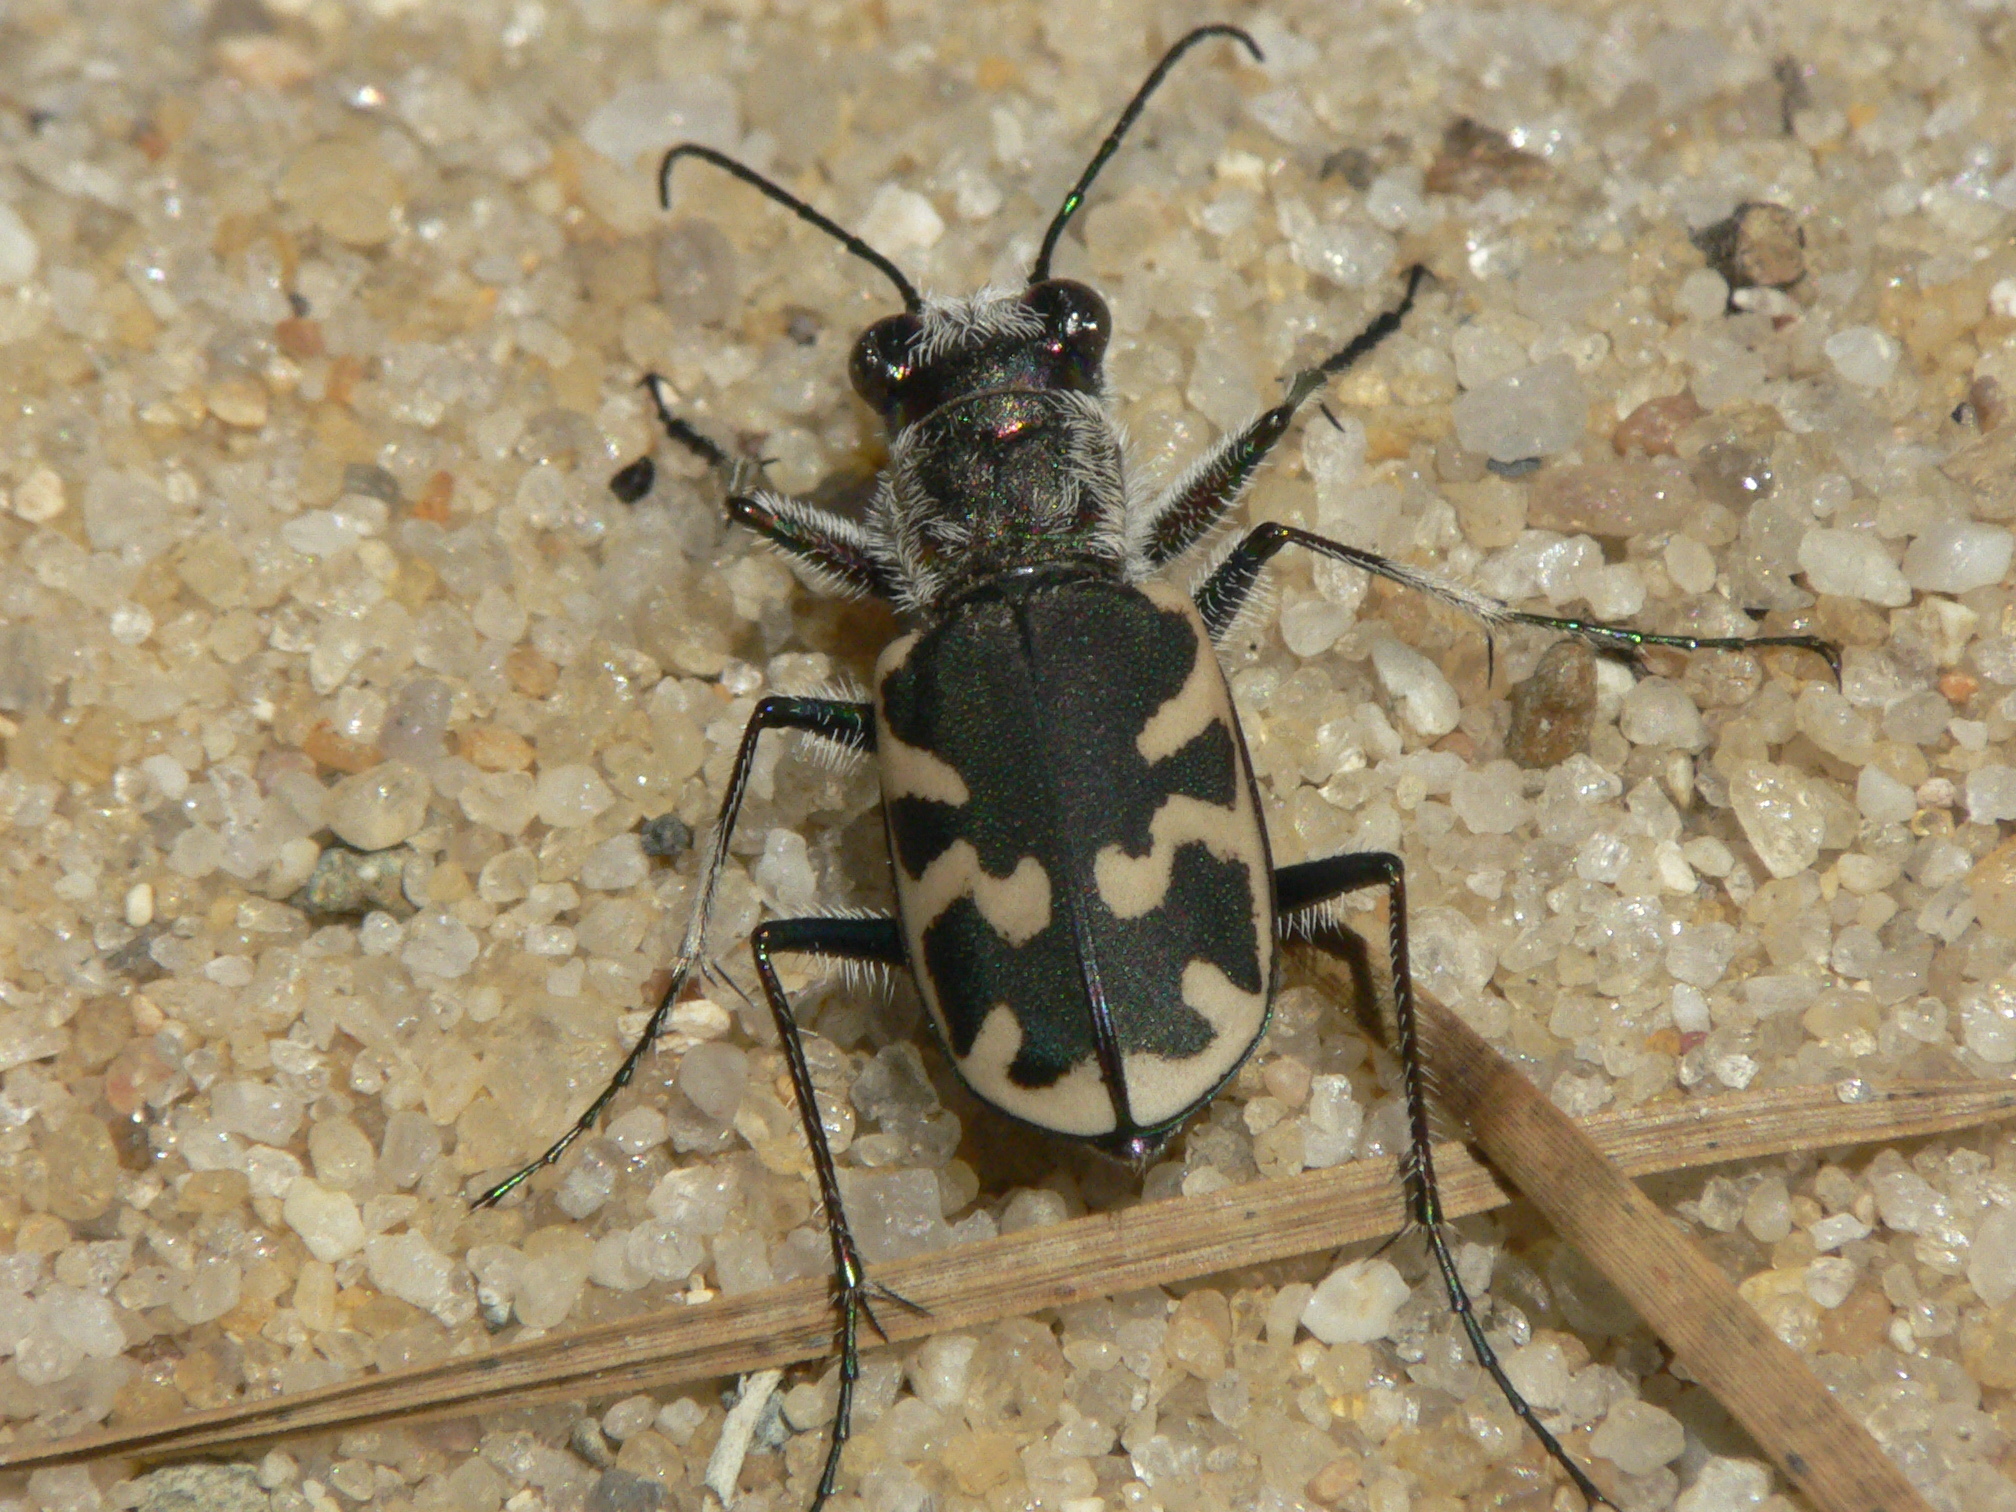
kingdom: Animalia
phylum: Arthropoda
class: Insecta
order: Coleoptera
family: Carabidae
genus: Cicindela
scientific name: Cicindela formosa
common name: Big sand tiger beetle
